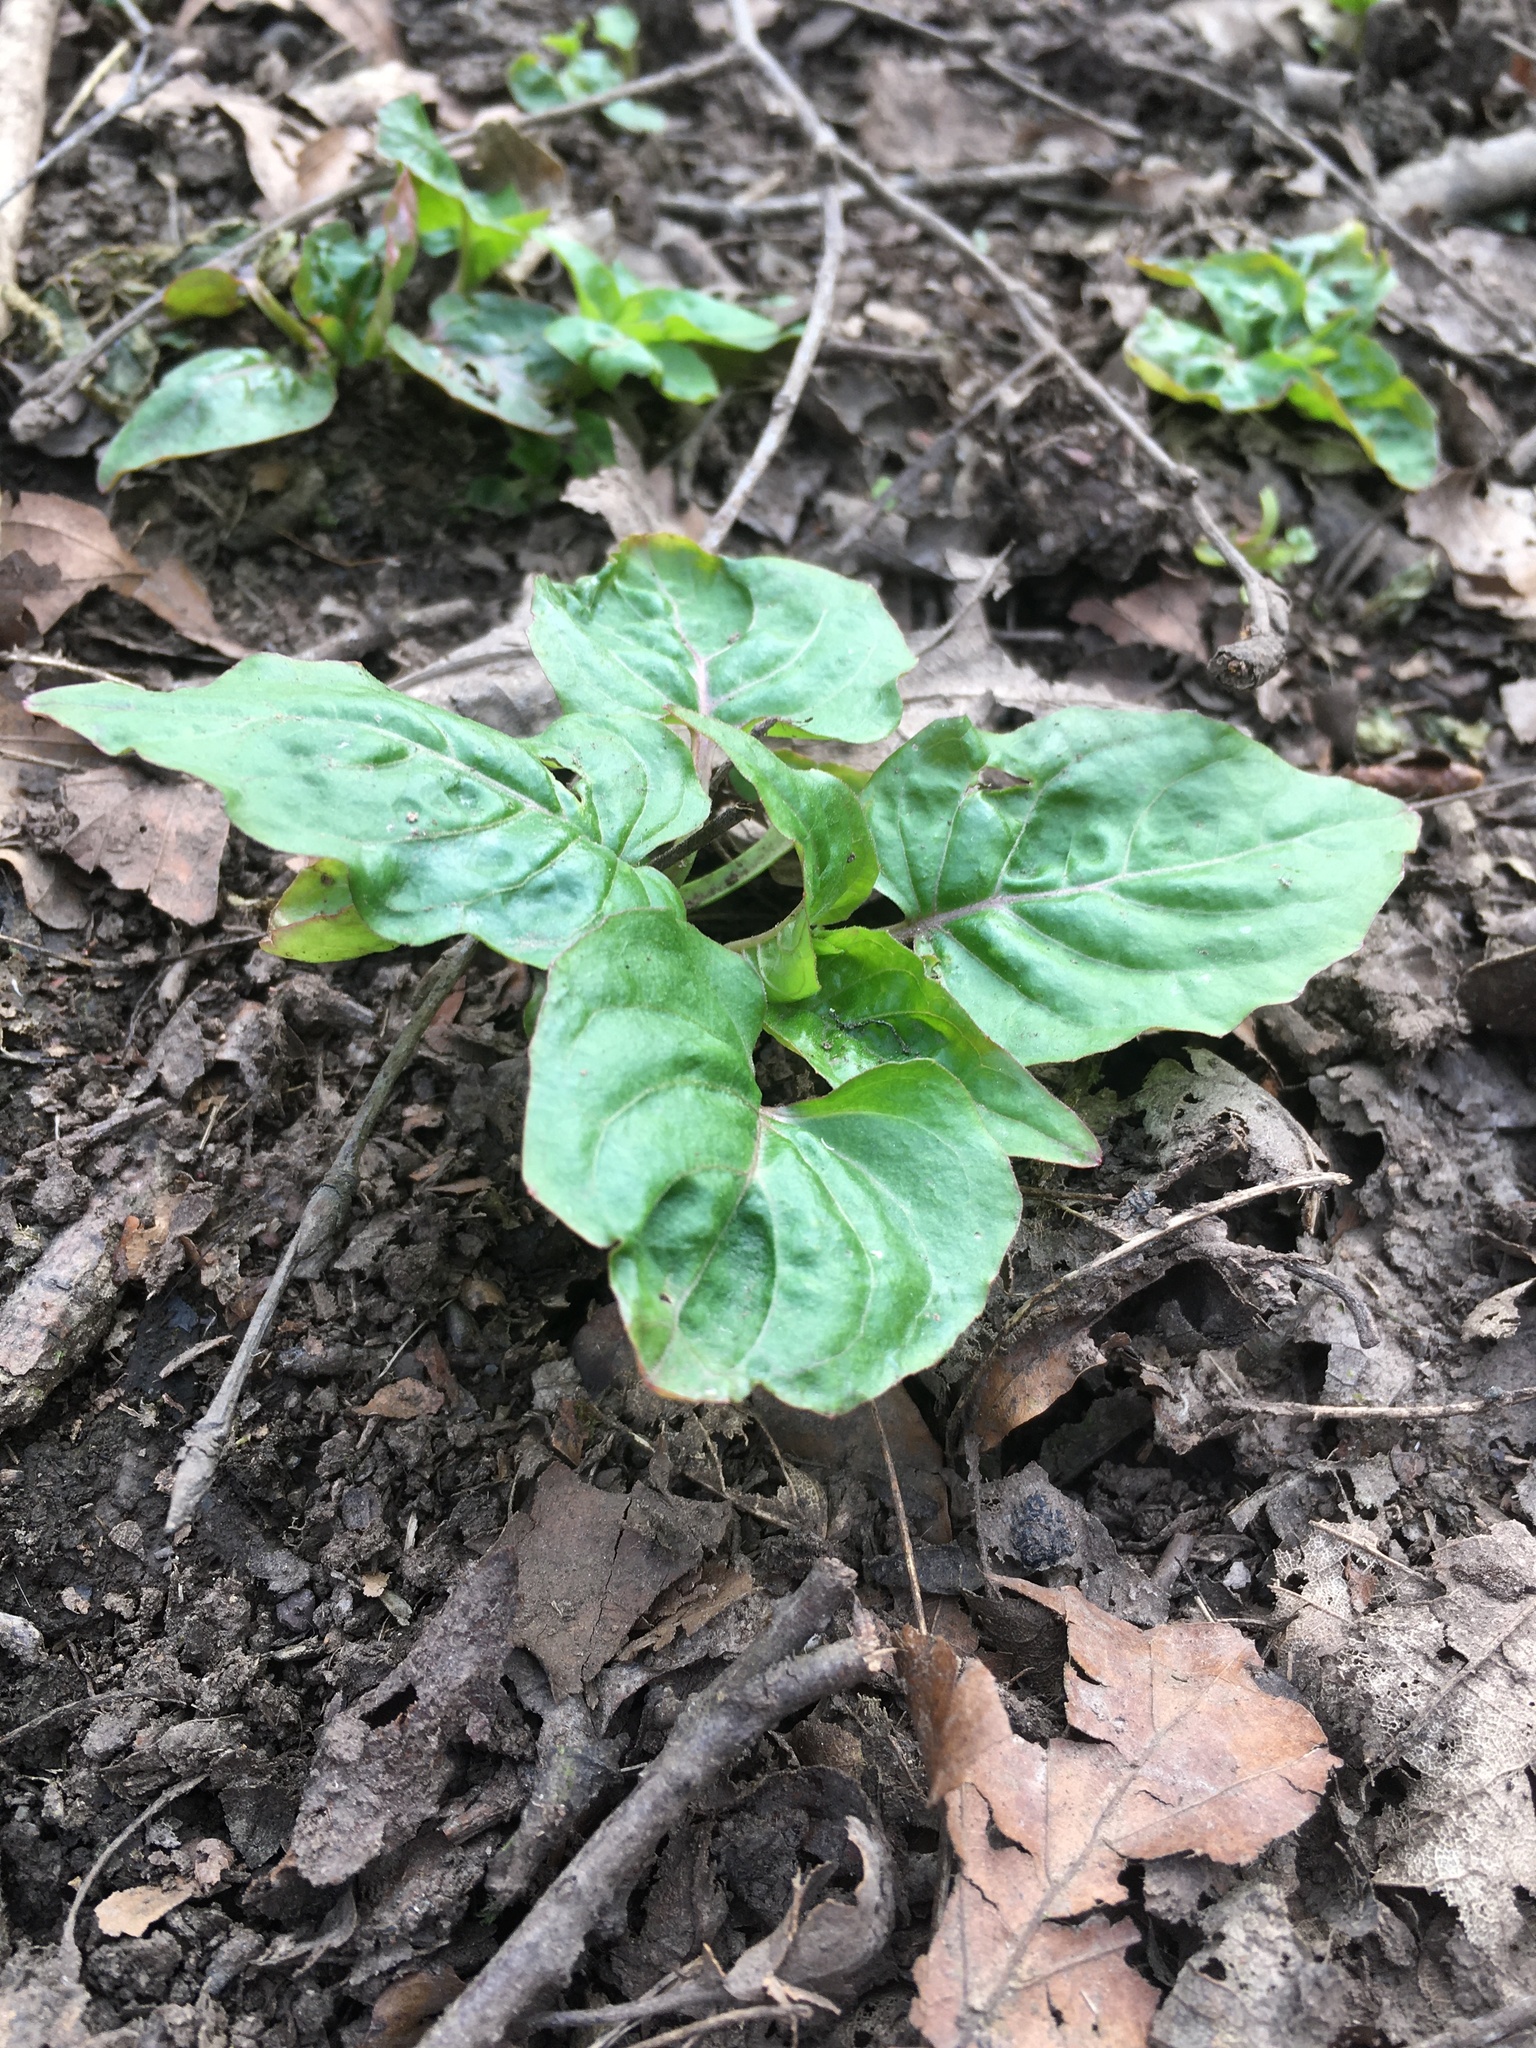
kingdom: Plantae
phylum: Tracheophyta
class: Magnoliopsida
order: Myrtales
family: Onagraceae
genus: Circaea
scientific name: Circaea lutetiana
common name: Enchanter's-nightshade
